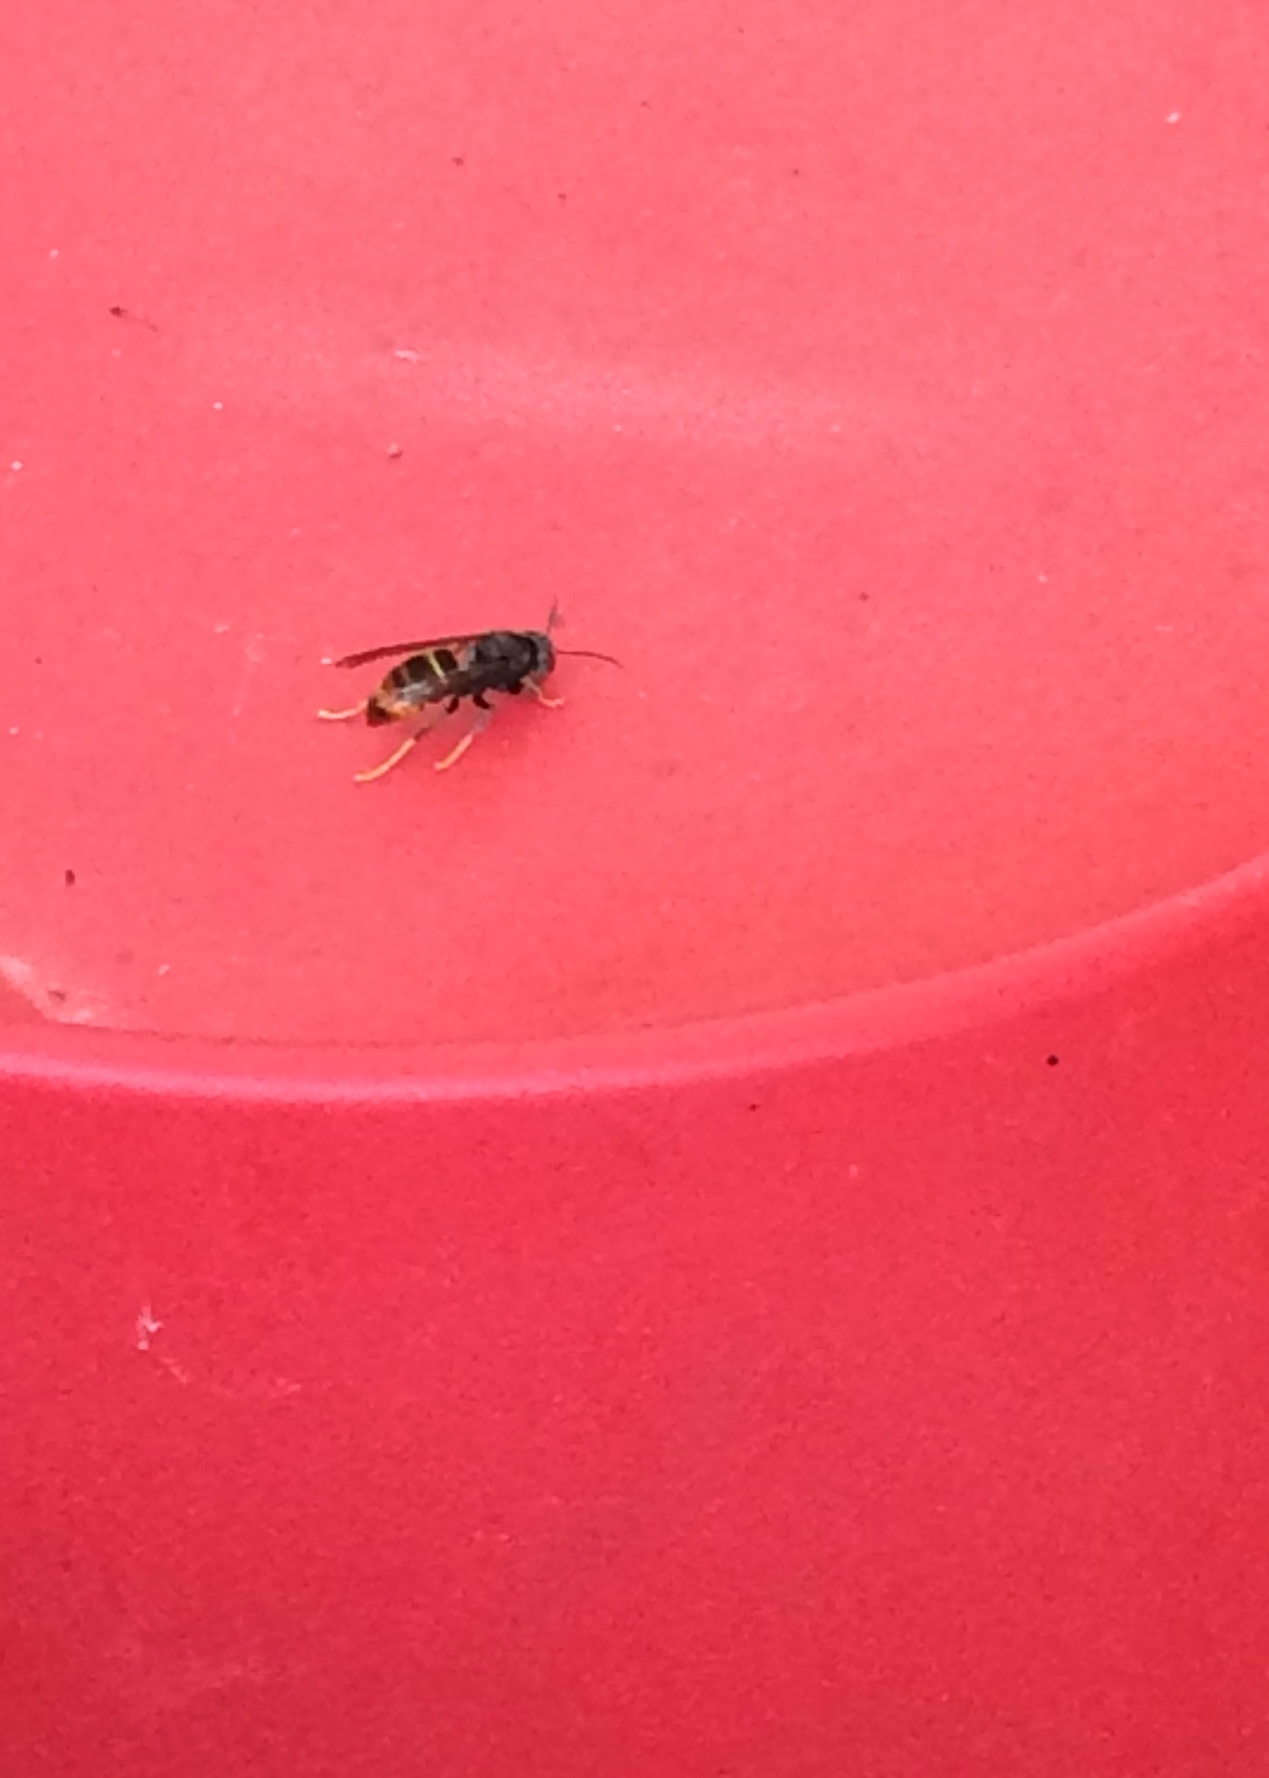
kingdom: Animalia
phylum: Arthropoda
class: Insecta
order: Hymenoptera
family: Vespidae
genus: Vespa
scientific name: Vespa velutina
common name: Asian hornet
